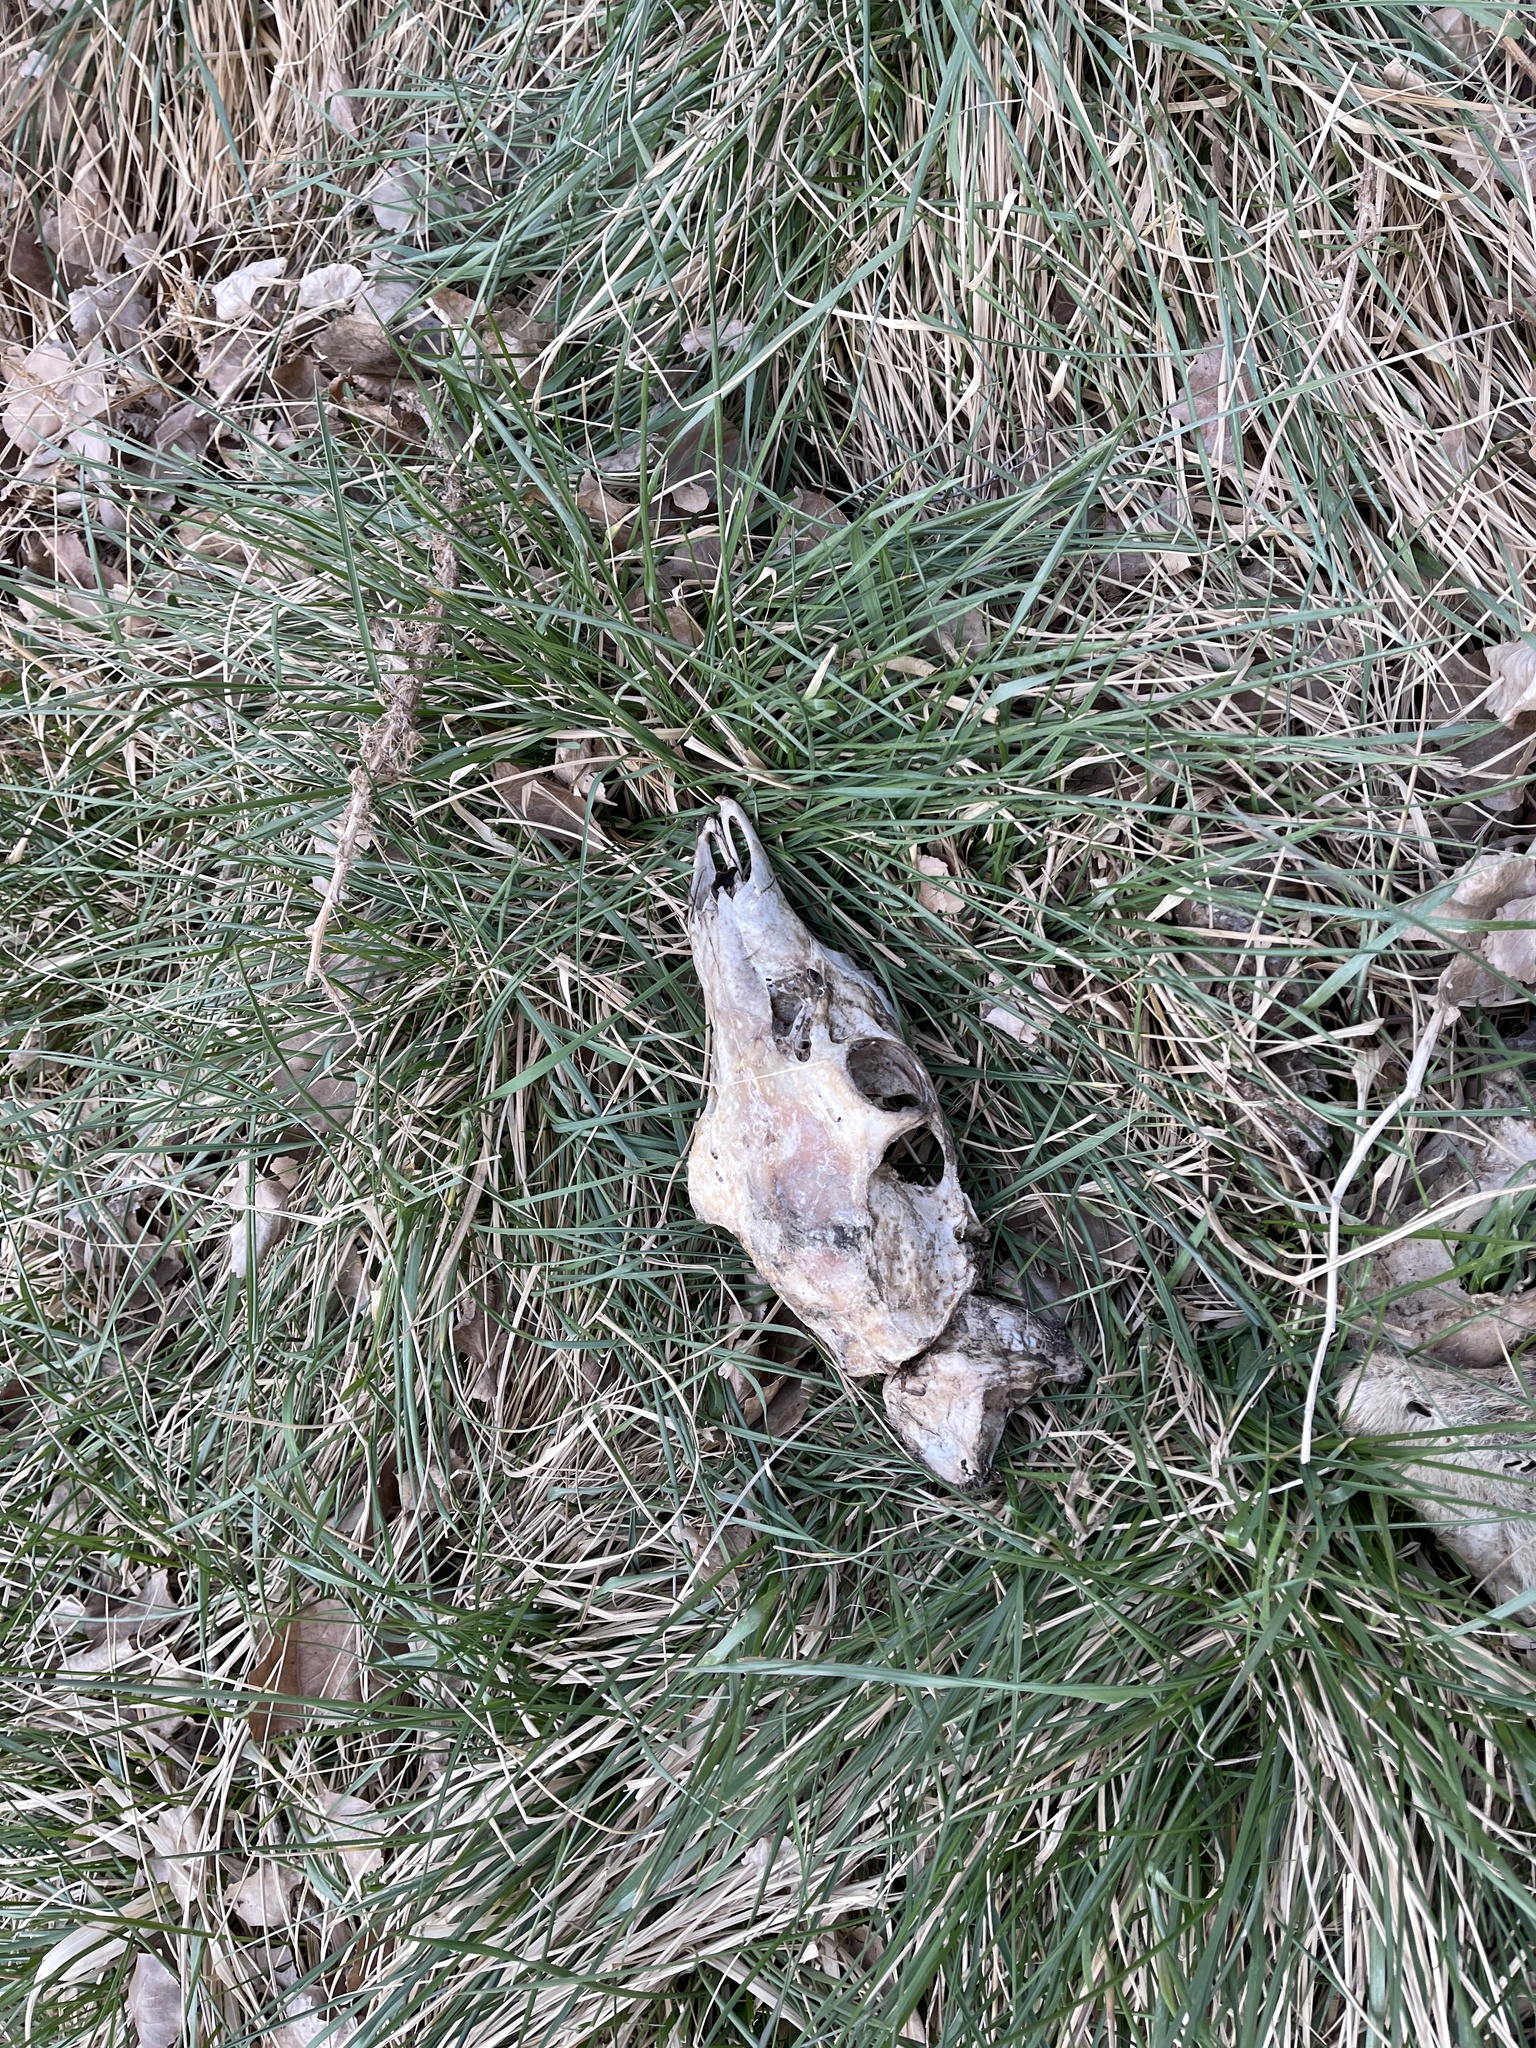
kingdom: Animalia
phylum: Chordata
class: Mammalia
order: Artiodactyla
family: Cervidae
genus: Odocoileus
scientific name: Odocoileus hemionus
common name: Mule deer
